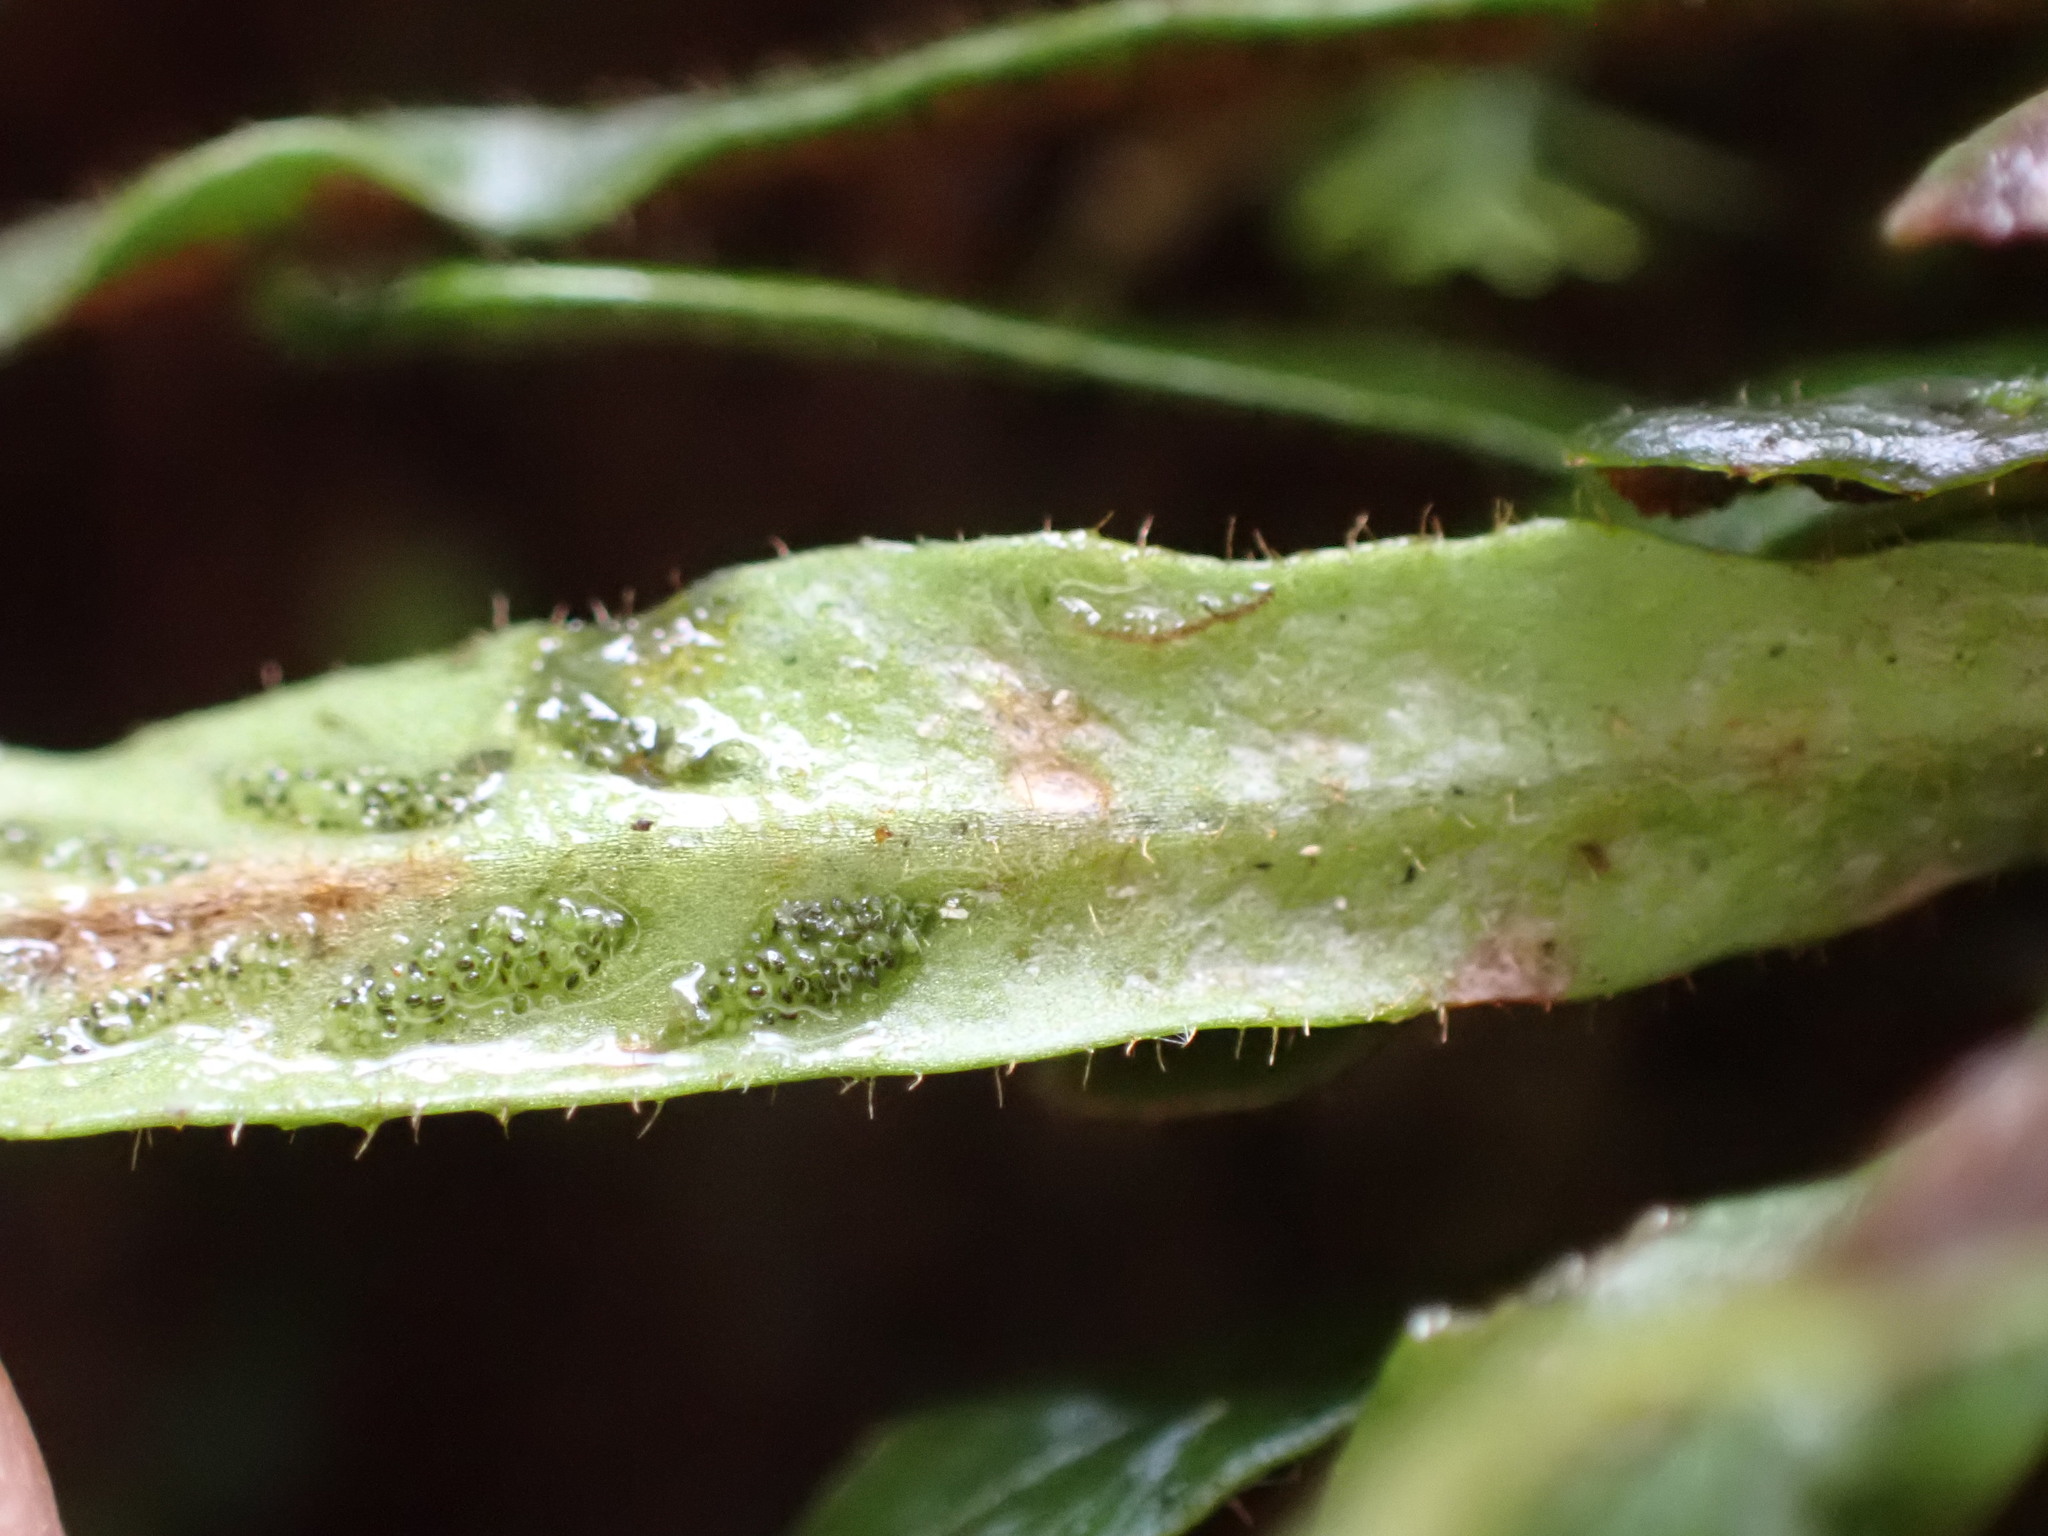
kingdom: Plantae
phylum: Tracheophyta
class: Polypodiopsida
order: Polypodiales
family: Polypodiaceae
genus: Notogrammitis
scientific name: Notogrammitis ciliata
